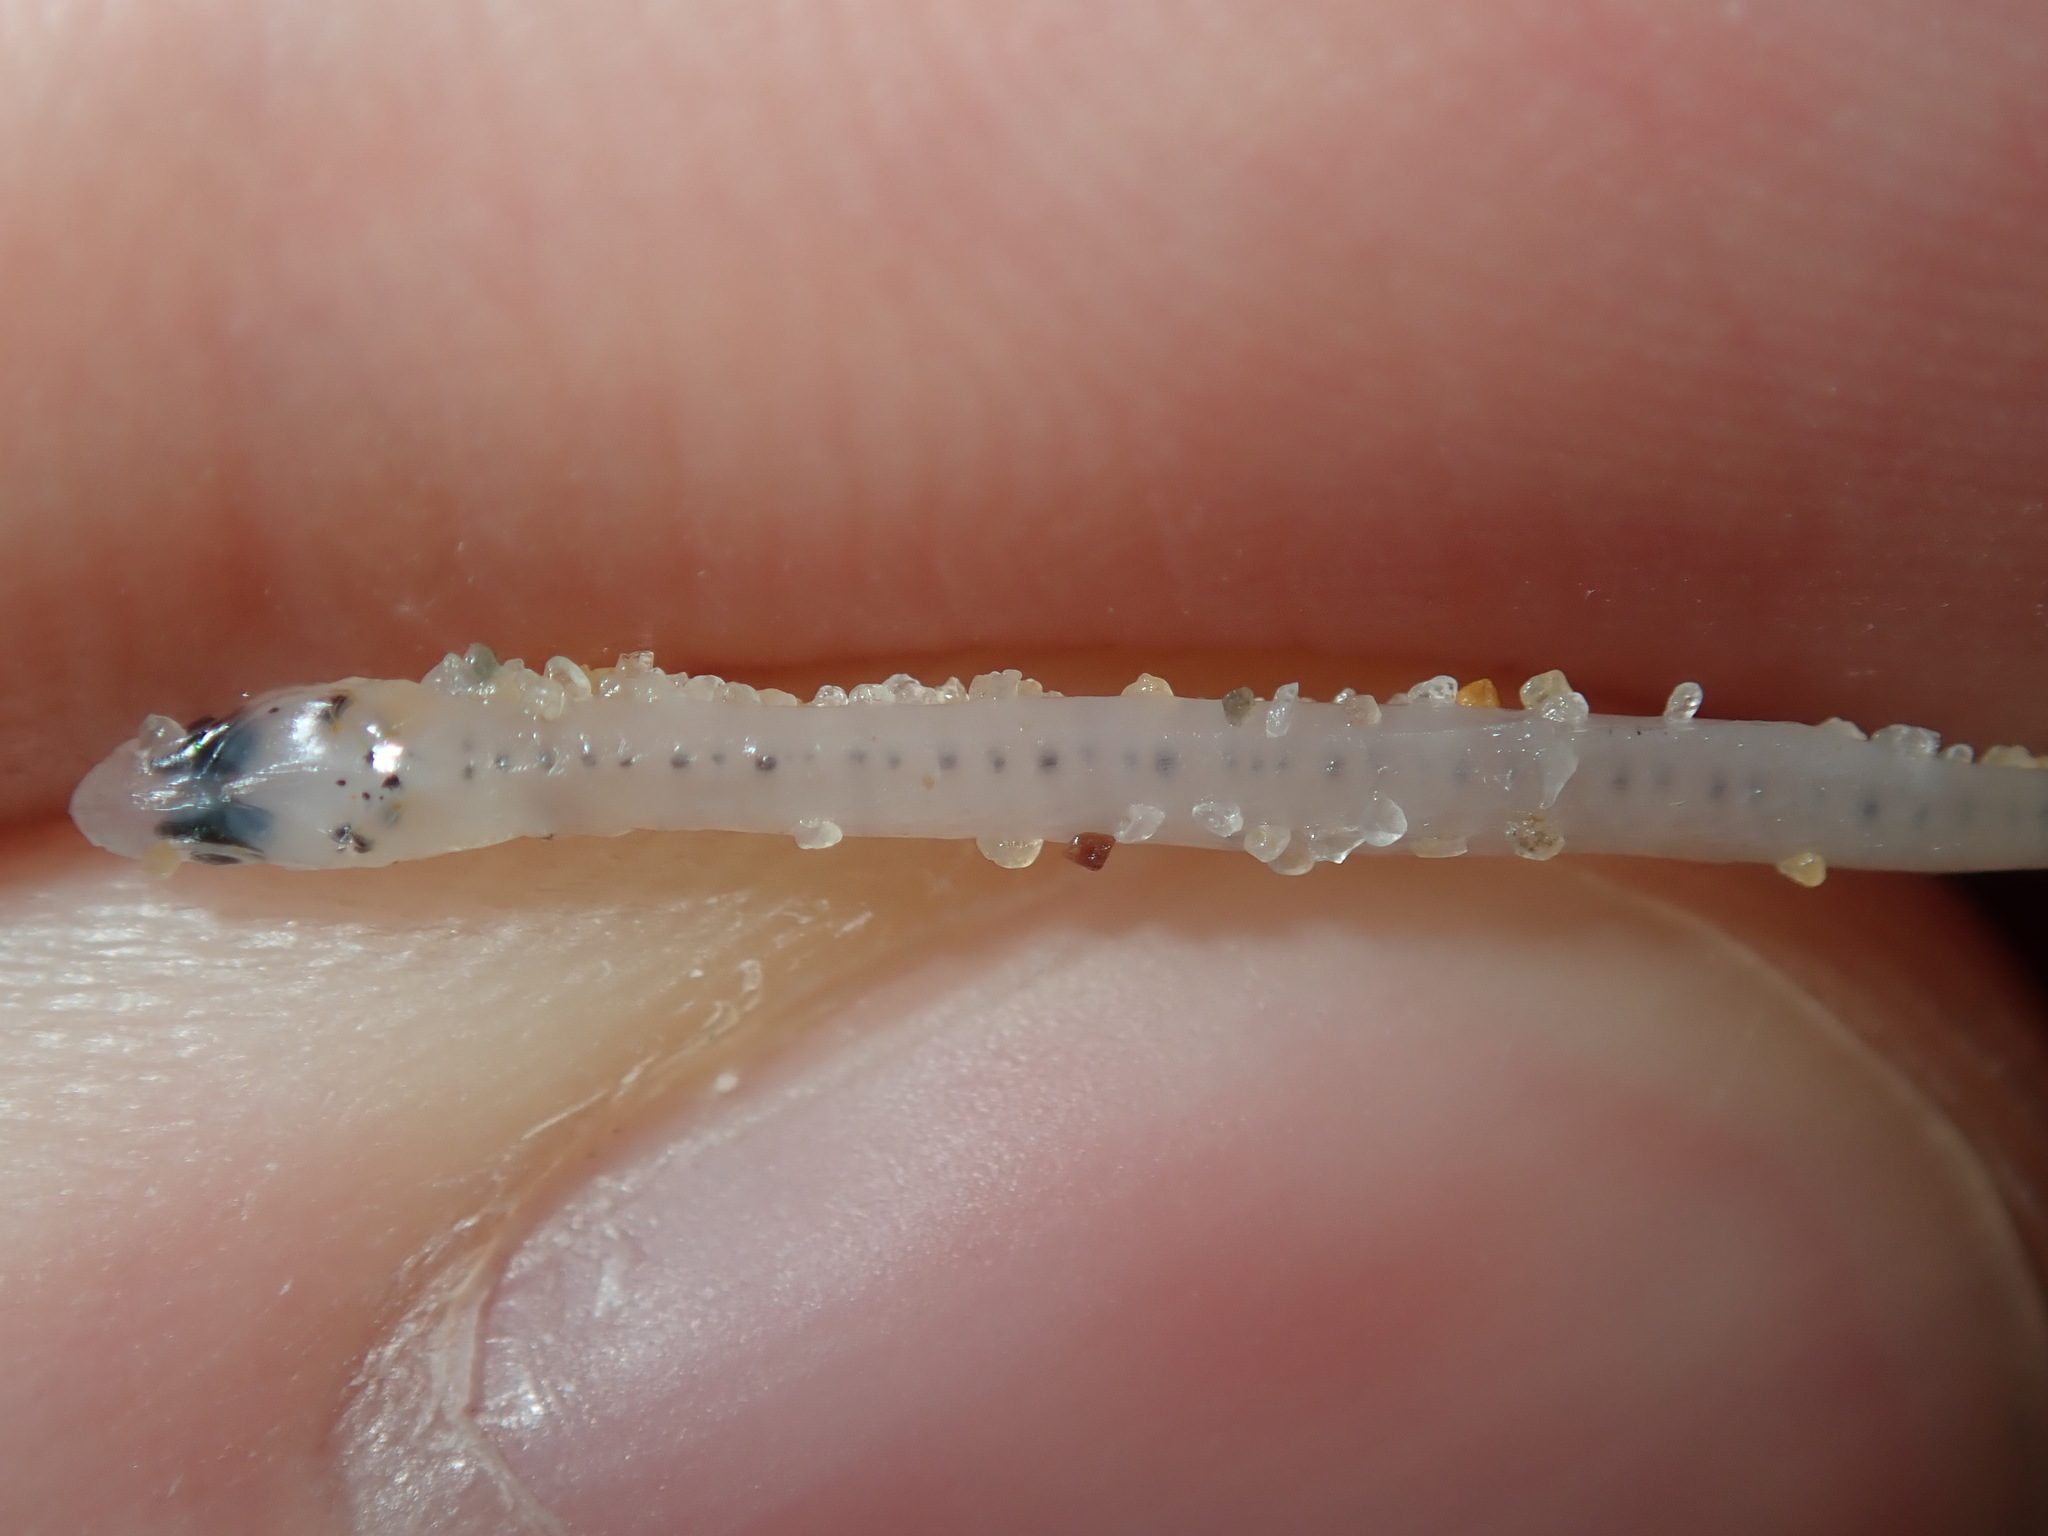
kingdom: Animalia
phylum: Chordata
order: Clupeiformes
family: Engraulidae
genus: Engraulis
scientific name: Engraulis australis
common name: Australian anchovy
